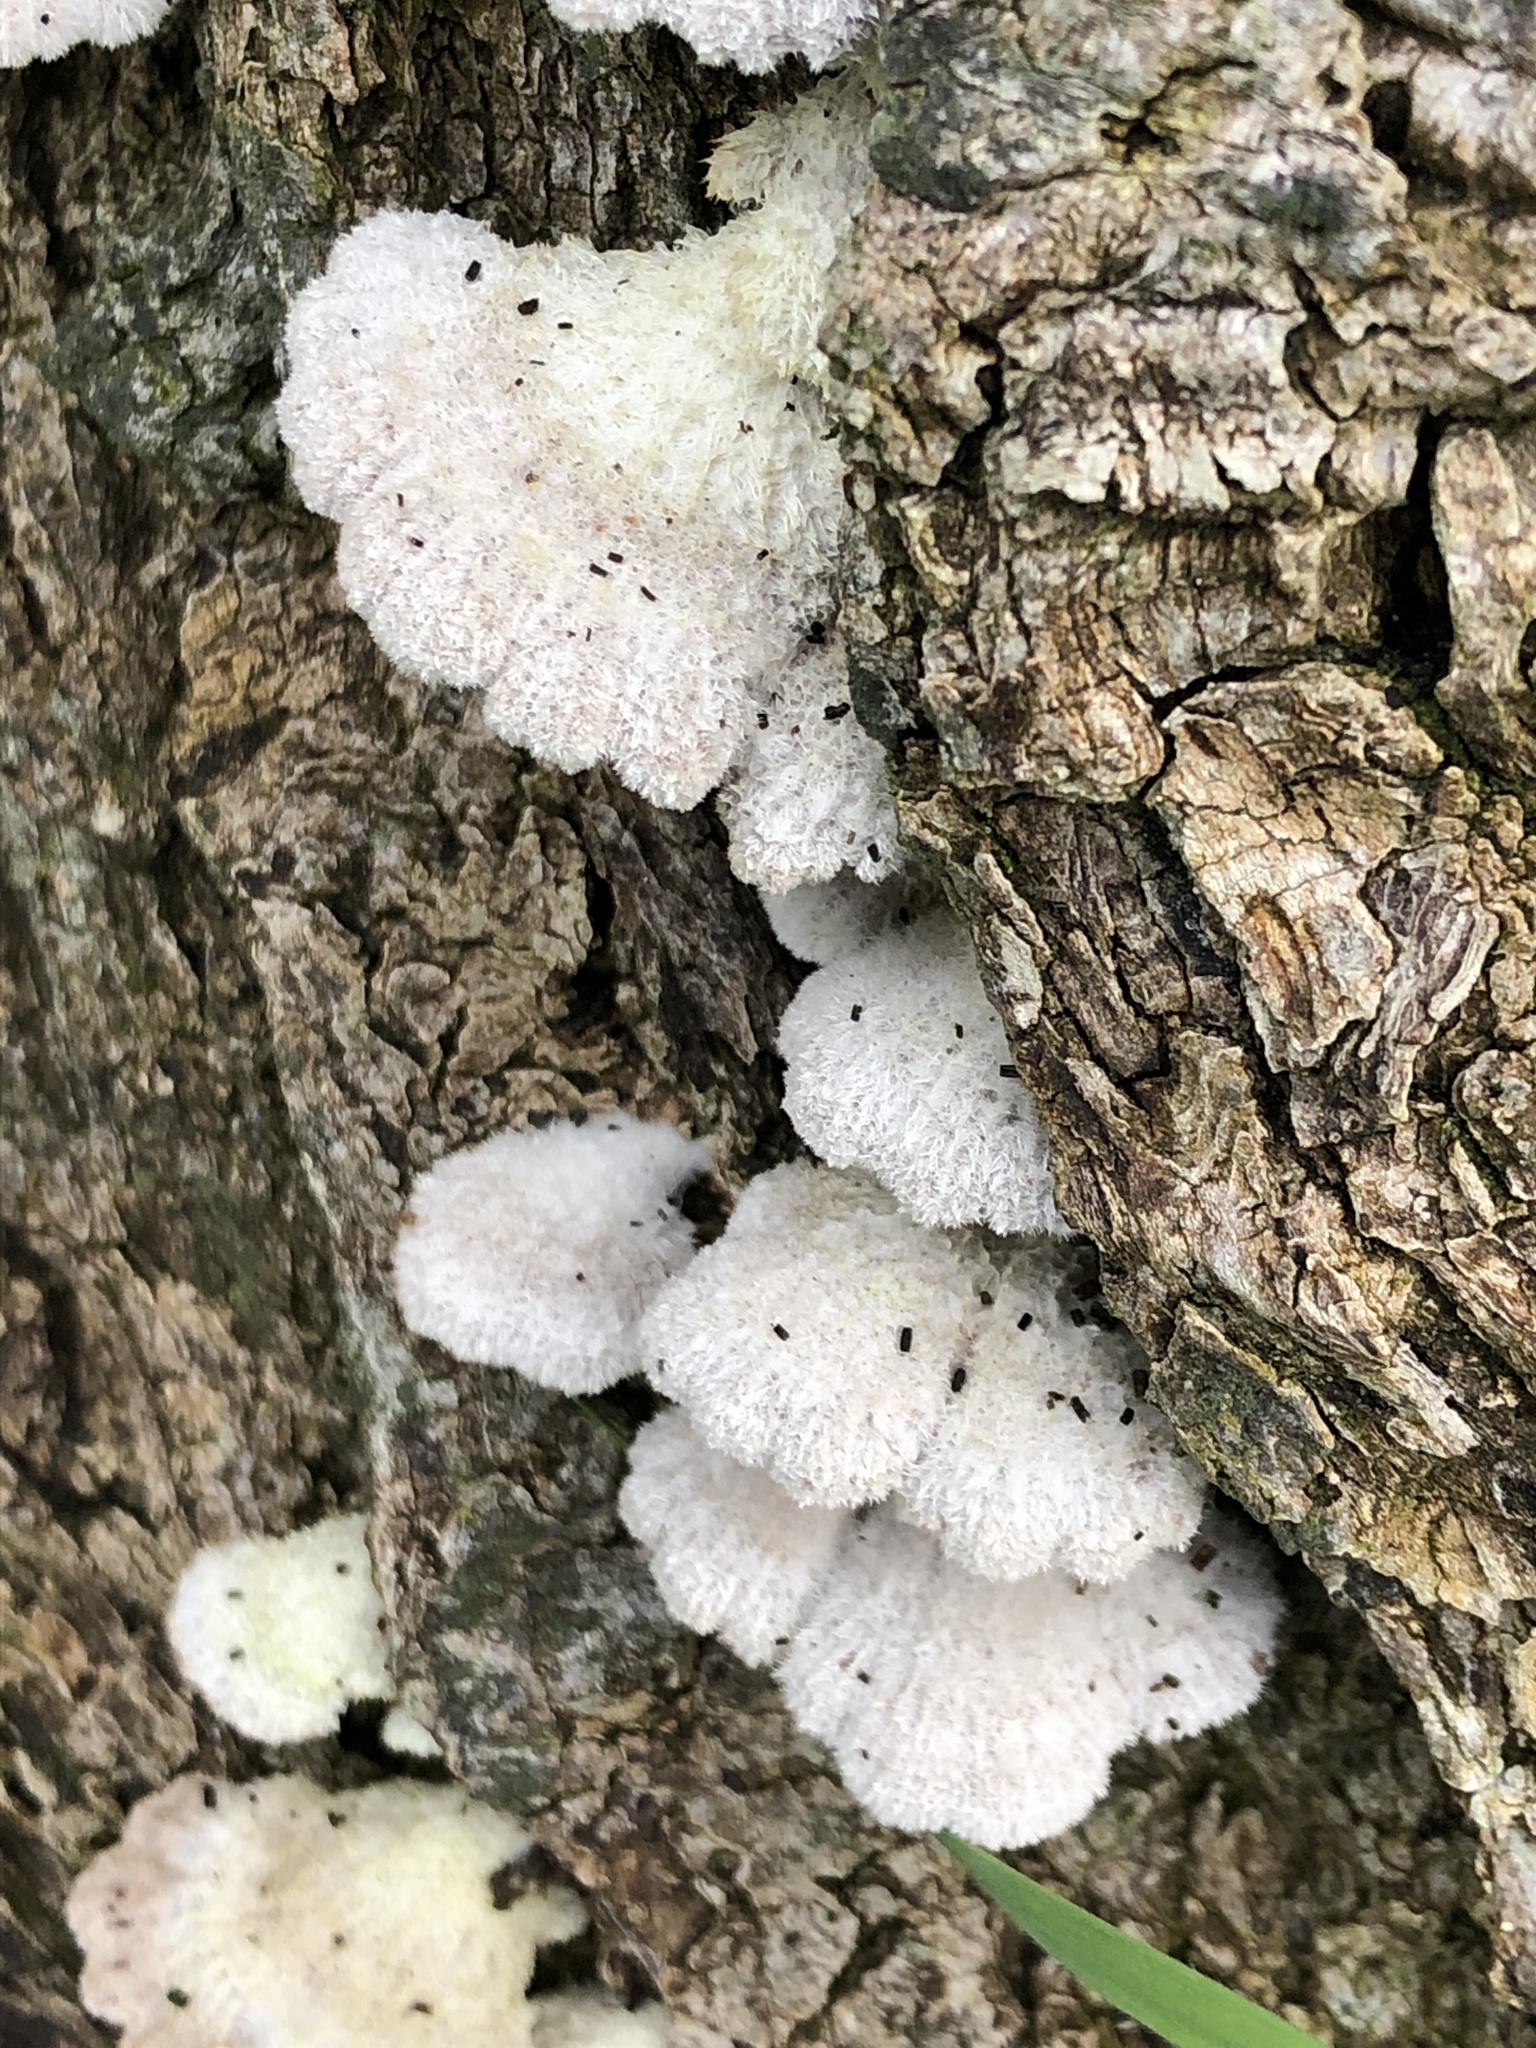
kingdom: Fungi
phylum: Basidiomycota
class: Agaricomycetes
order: Agaricales
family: Schizophyllaceae
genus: Schizophyllum
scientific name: Schizophyllum commune
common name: Common porecrust
